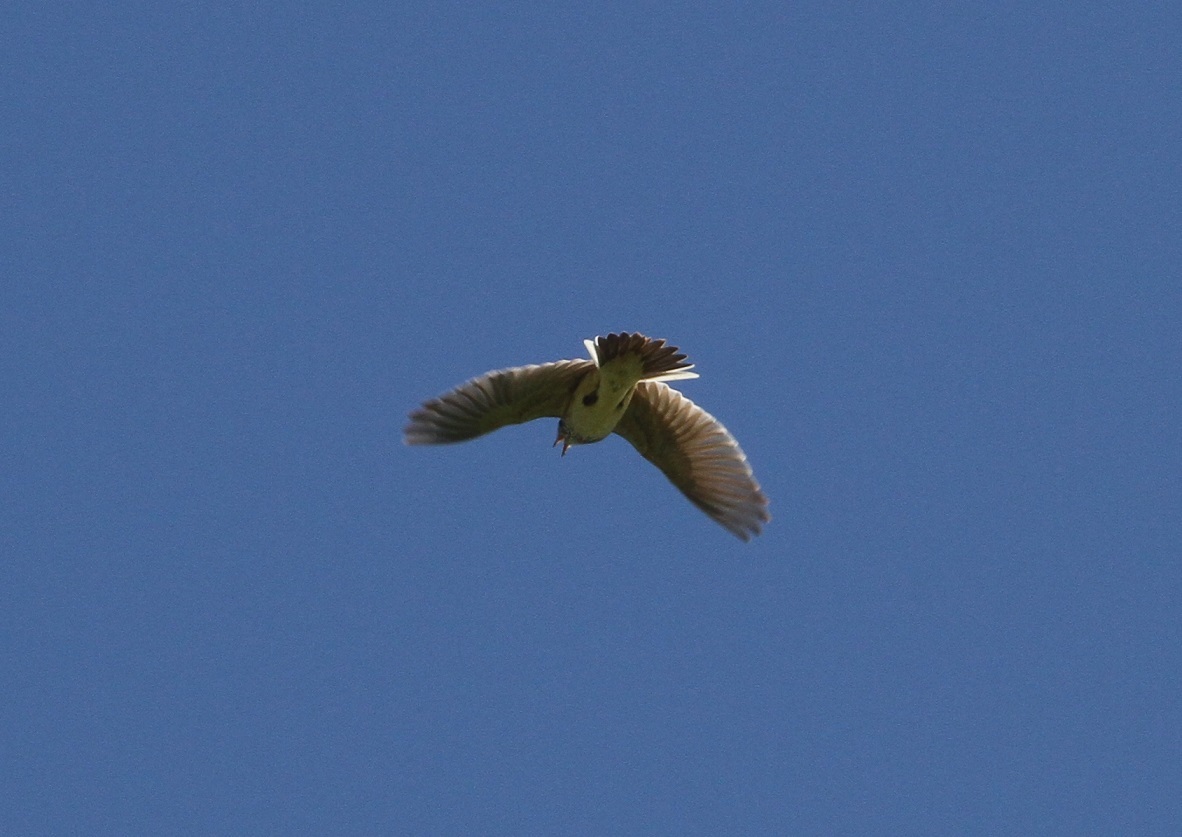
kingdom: Animalia
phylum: Chordata
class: Aves
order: Passeriformes
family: Alaudidae
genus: Alauda
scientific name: Alauda arvensis
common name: Eurasian skylark
